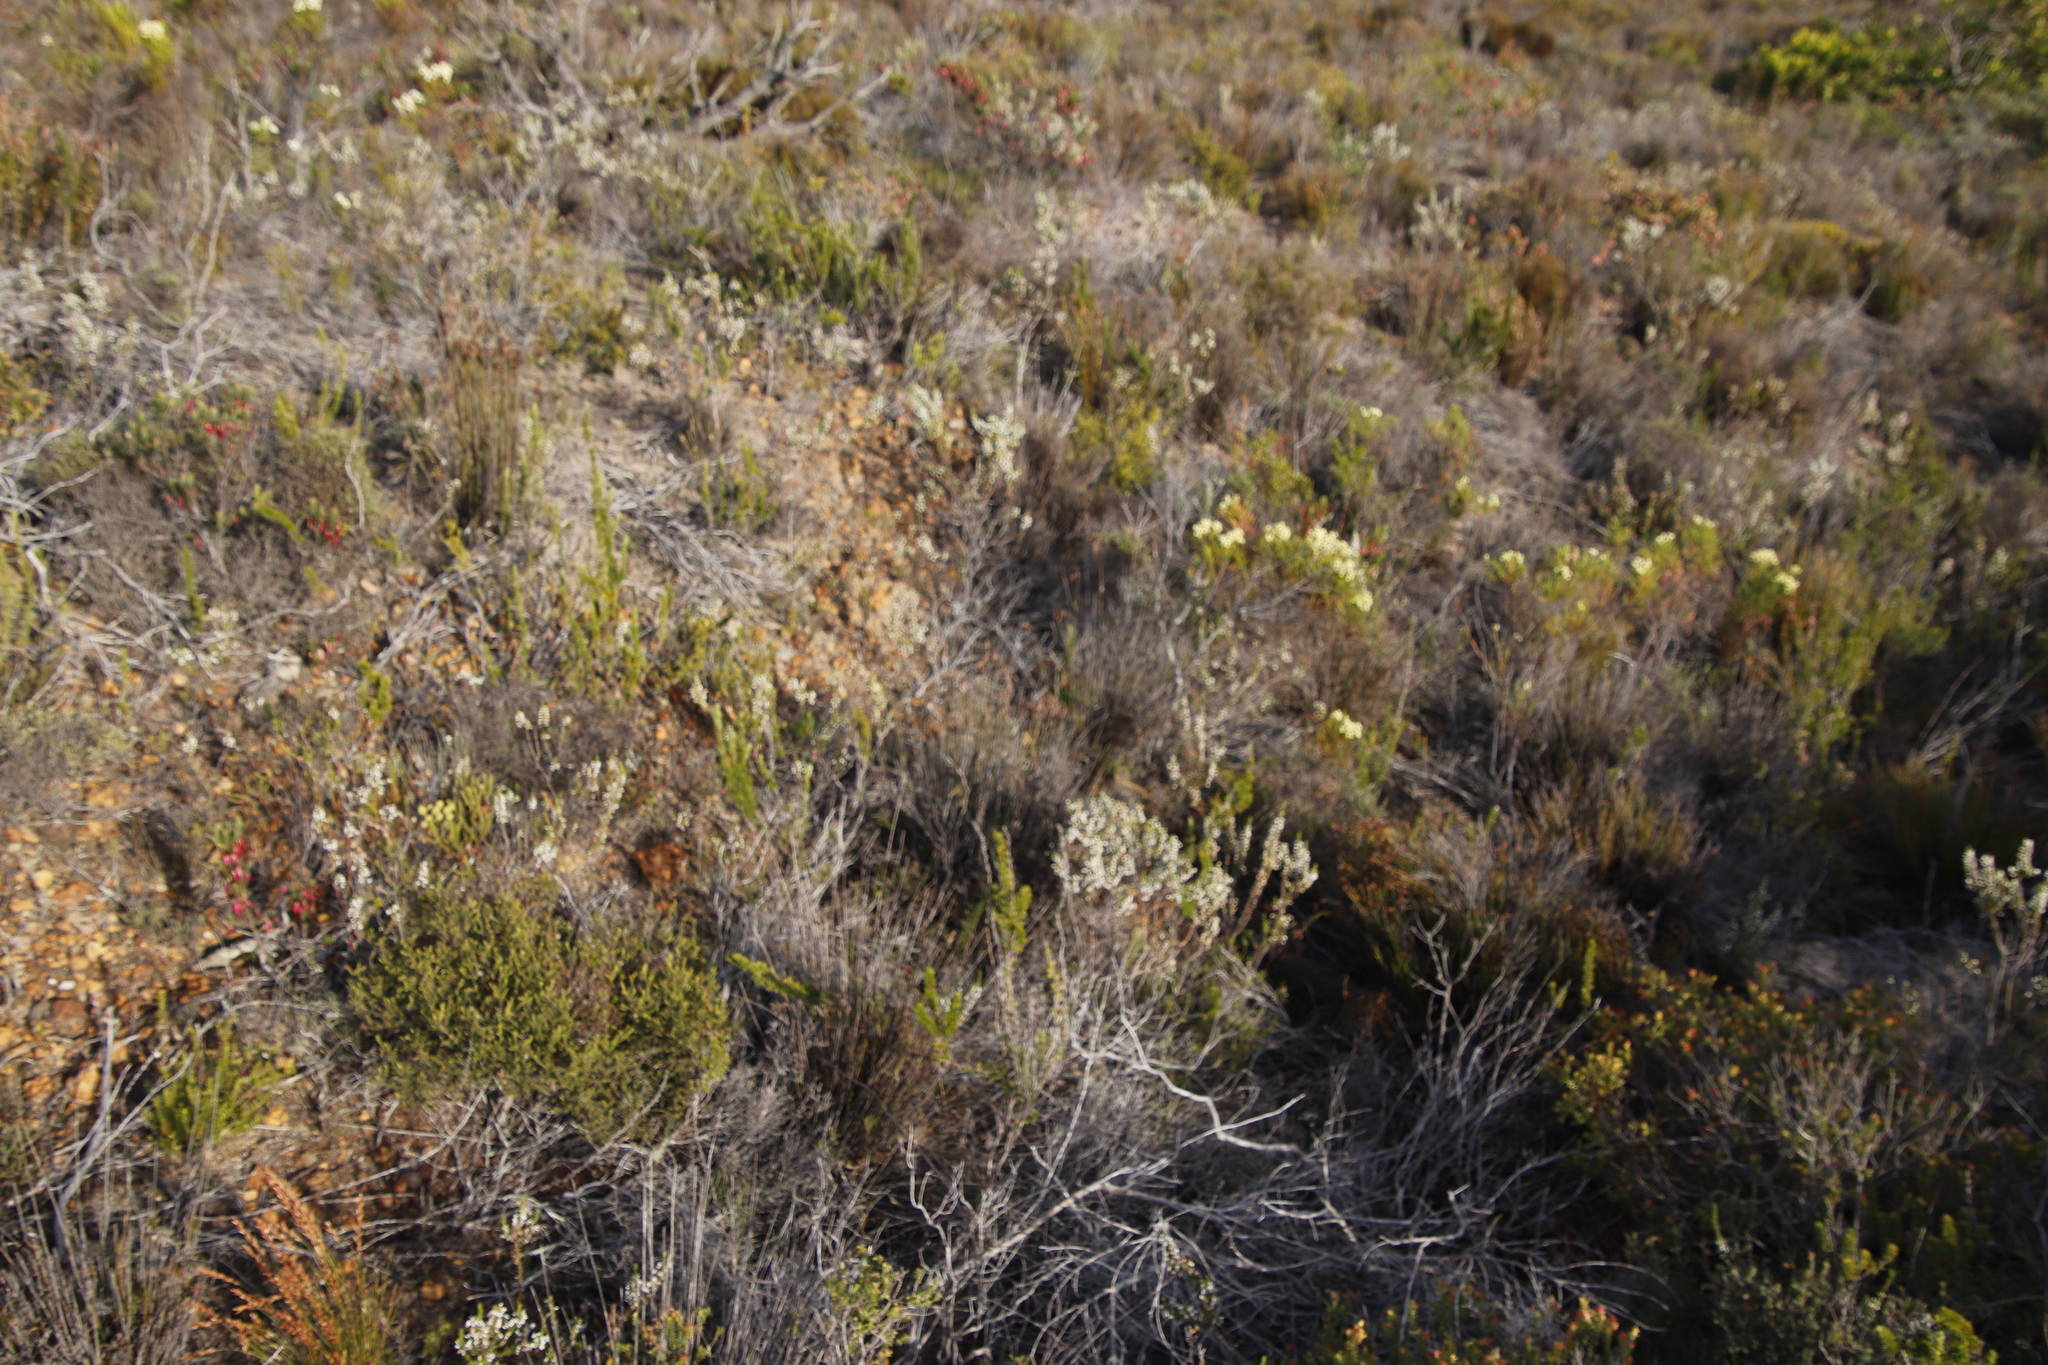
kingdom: Plantae
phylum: Tracheophyta
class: Magnoliopsida
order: Ericales
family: Ericaceae
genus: Erica
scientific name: Erica imbricata
